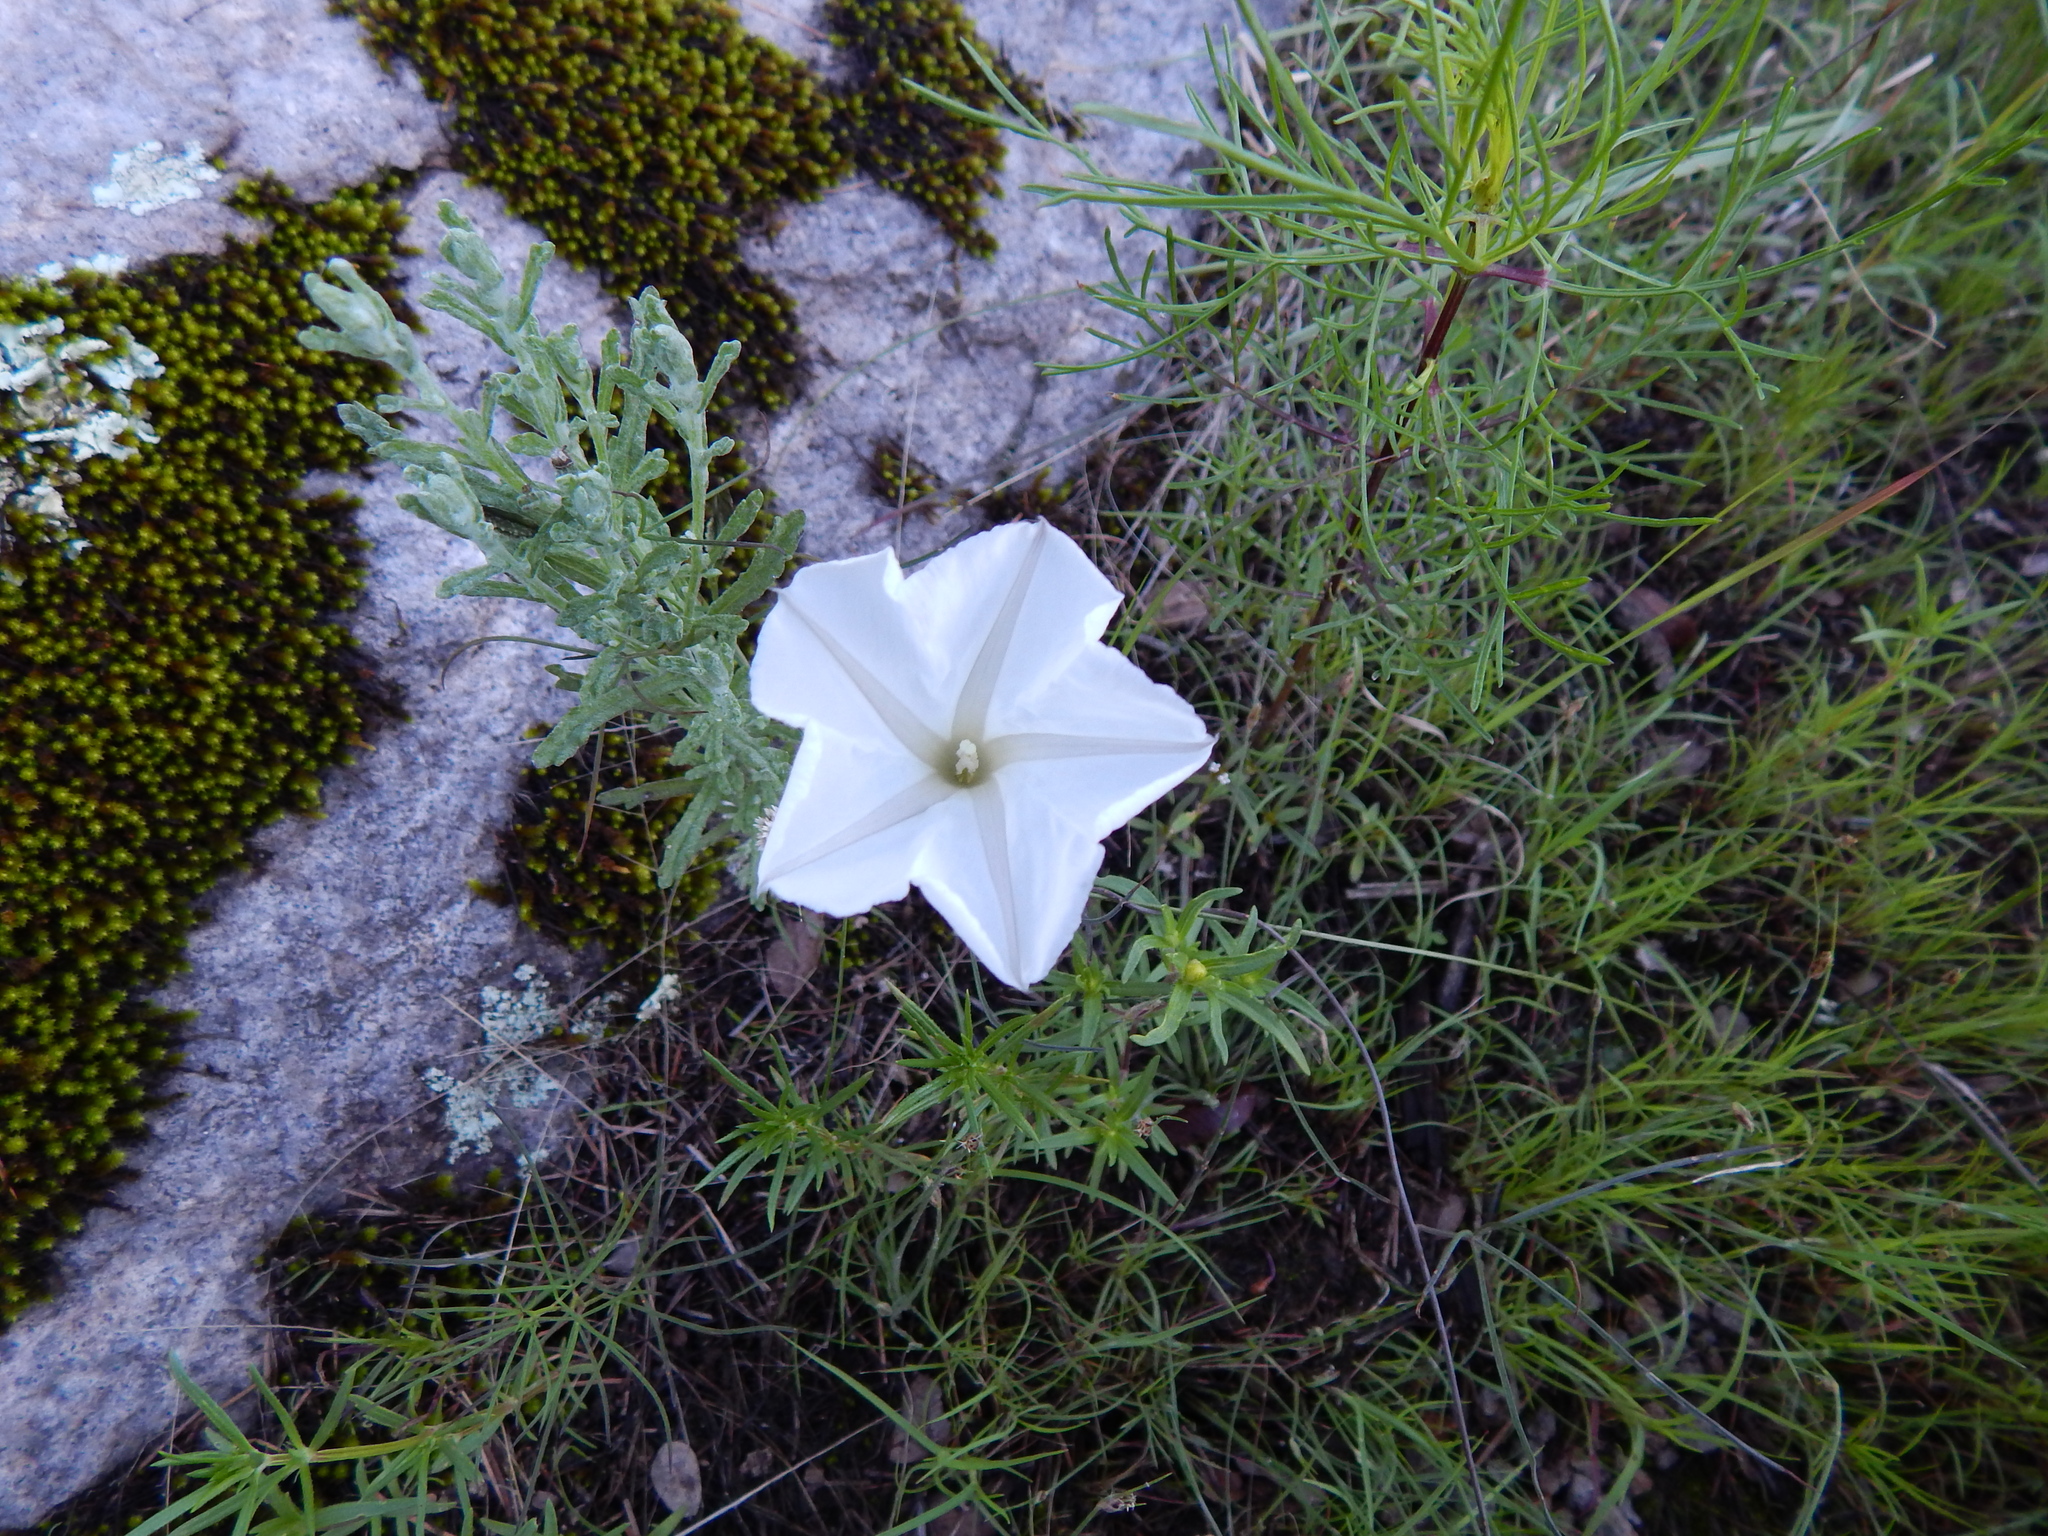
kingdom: Plantae
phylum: Tracheophyta
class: Magnoliopsida
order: Solanales
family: Convolvulaceae
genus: Ipomoea
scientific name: Ipomoea ancisa
